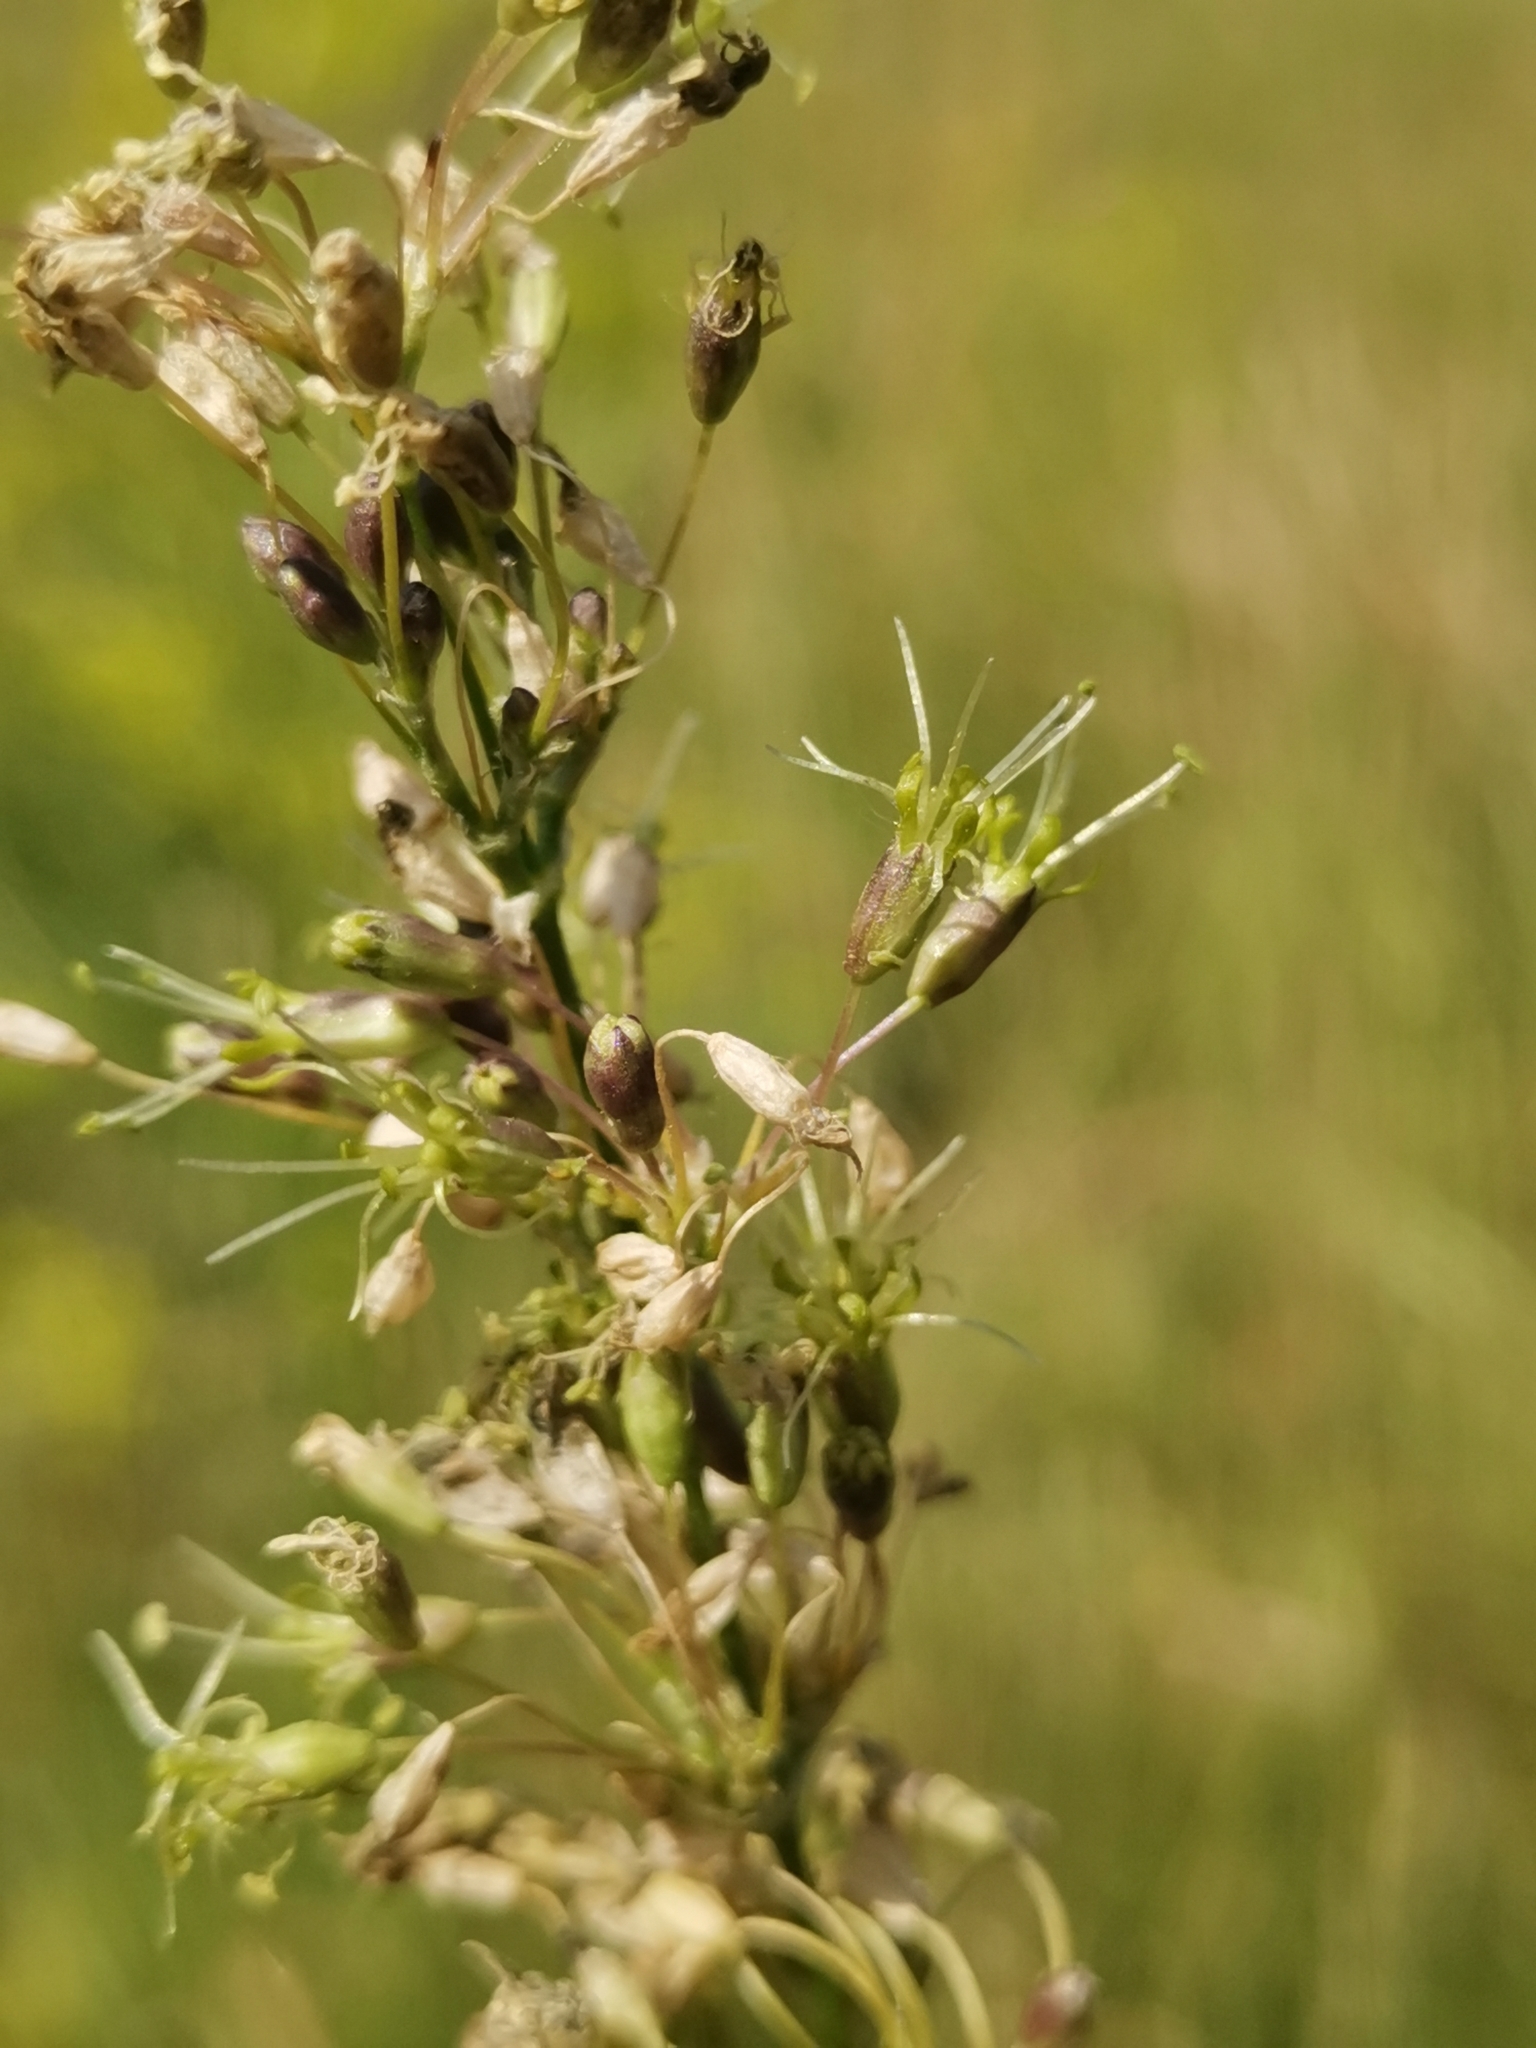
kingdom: Plantae
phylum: Tracheophyta
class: Magnoliopsida
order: Caryophyllales
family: Caryophyllaceae
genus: Silene
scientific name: Silene otites
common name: Spanish catchfly
